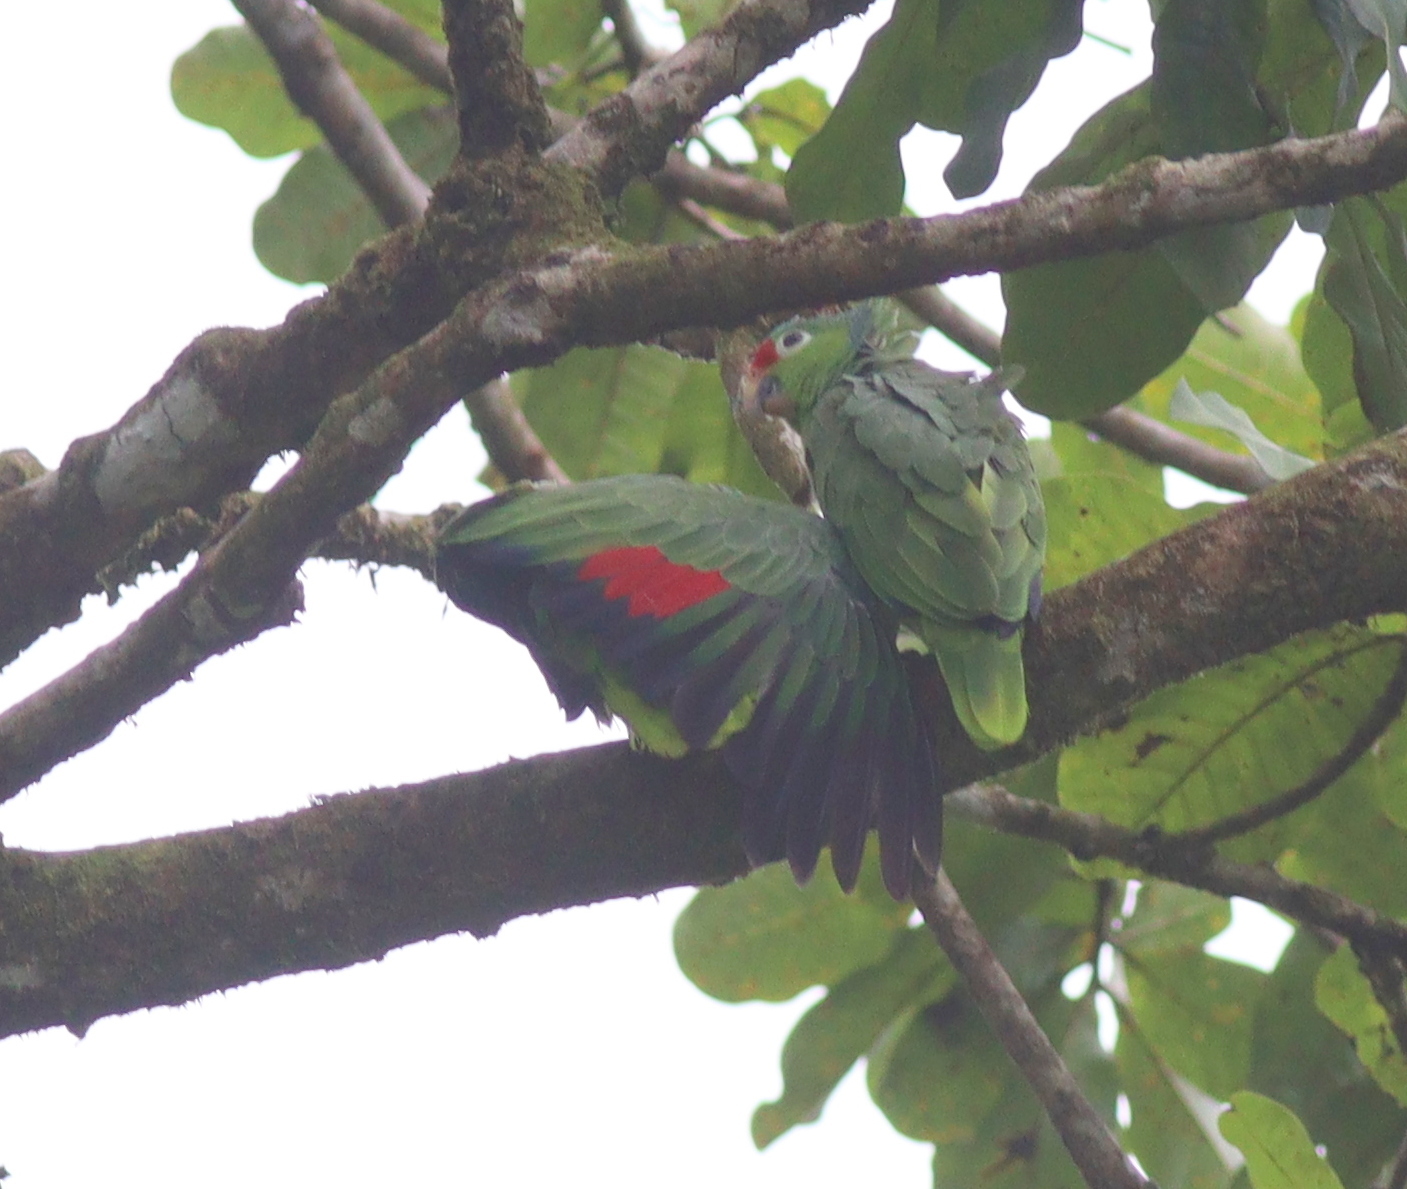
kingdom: Animalia
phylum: Chordata
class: Aves
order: Psittaciformes
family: Psittacidae
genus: Amazona
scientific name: Amazona autumnalis
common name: Red-lored amazon
